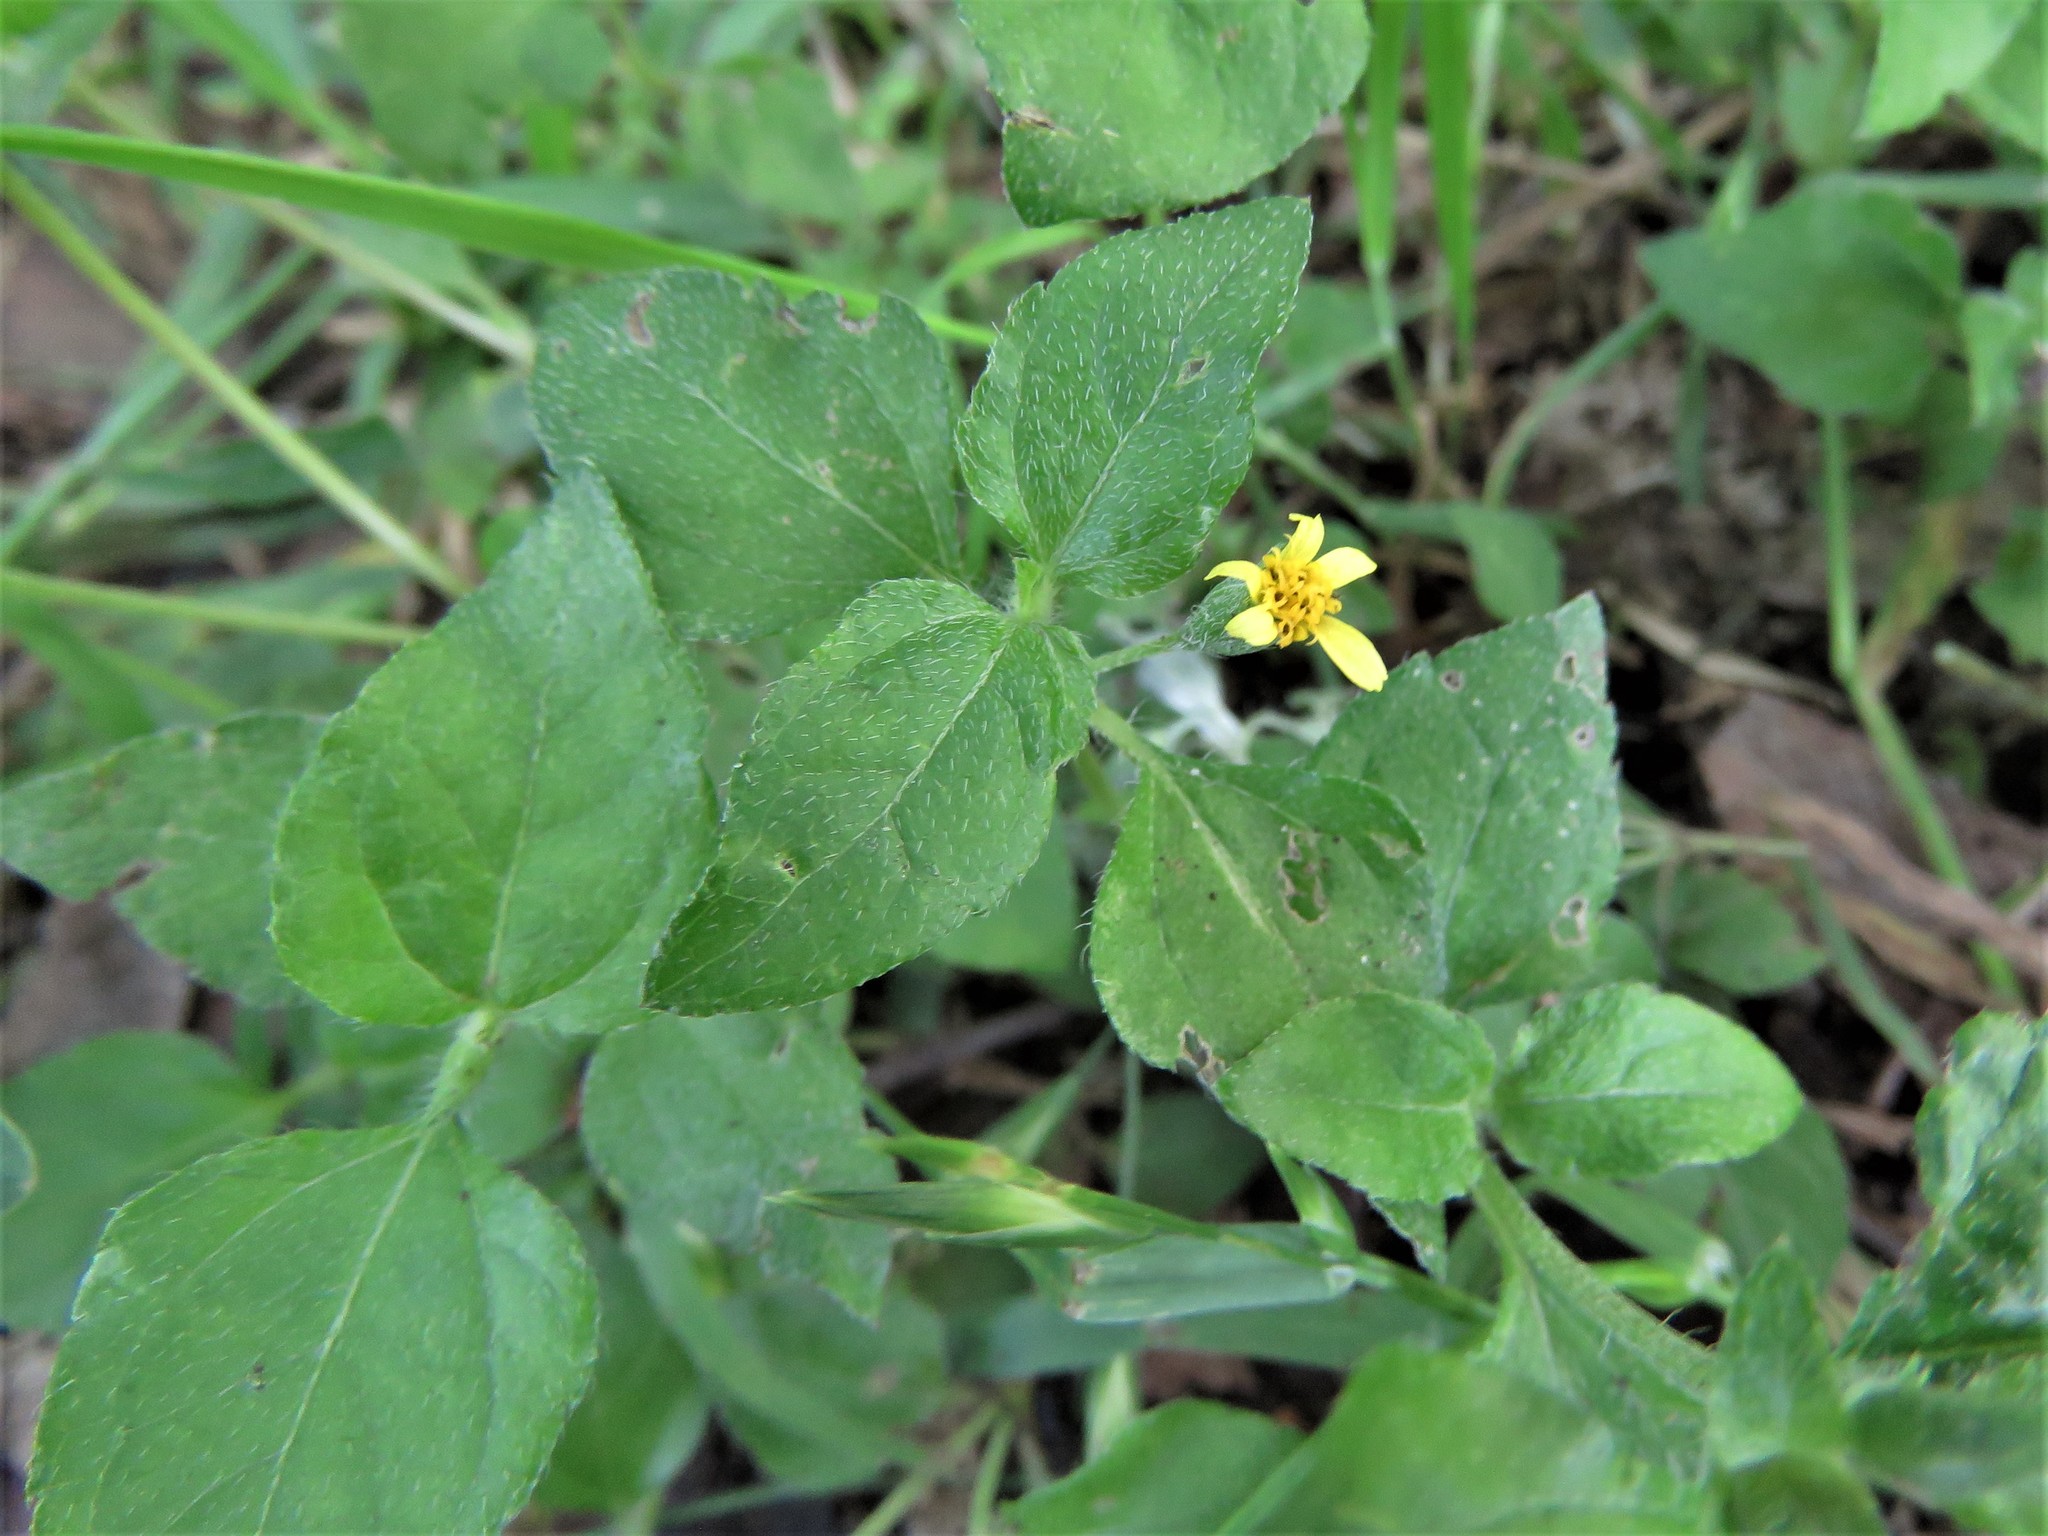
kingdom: Plantae
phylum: Tracheophyta
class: Magnoliopsida
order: Asterales
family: Asteraceae
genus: Calyptocarpus
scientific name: Calyptocarpus vialis
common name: Straggler daisy
